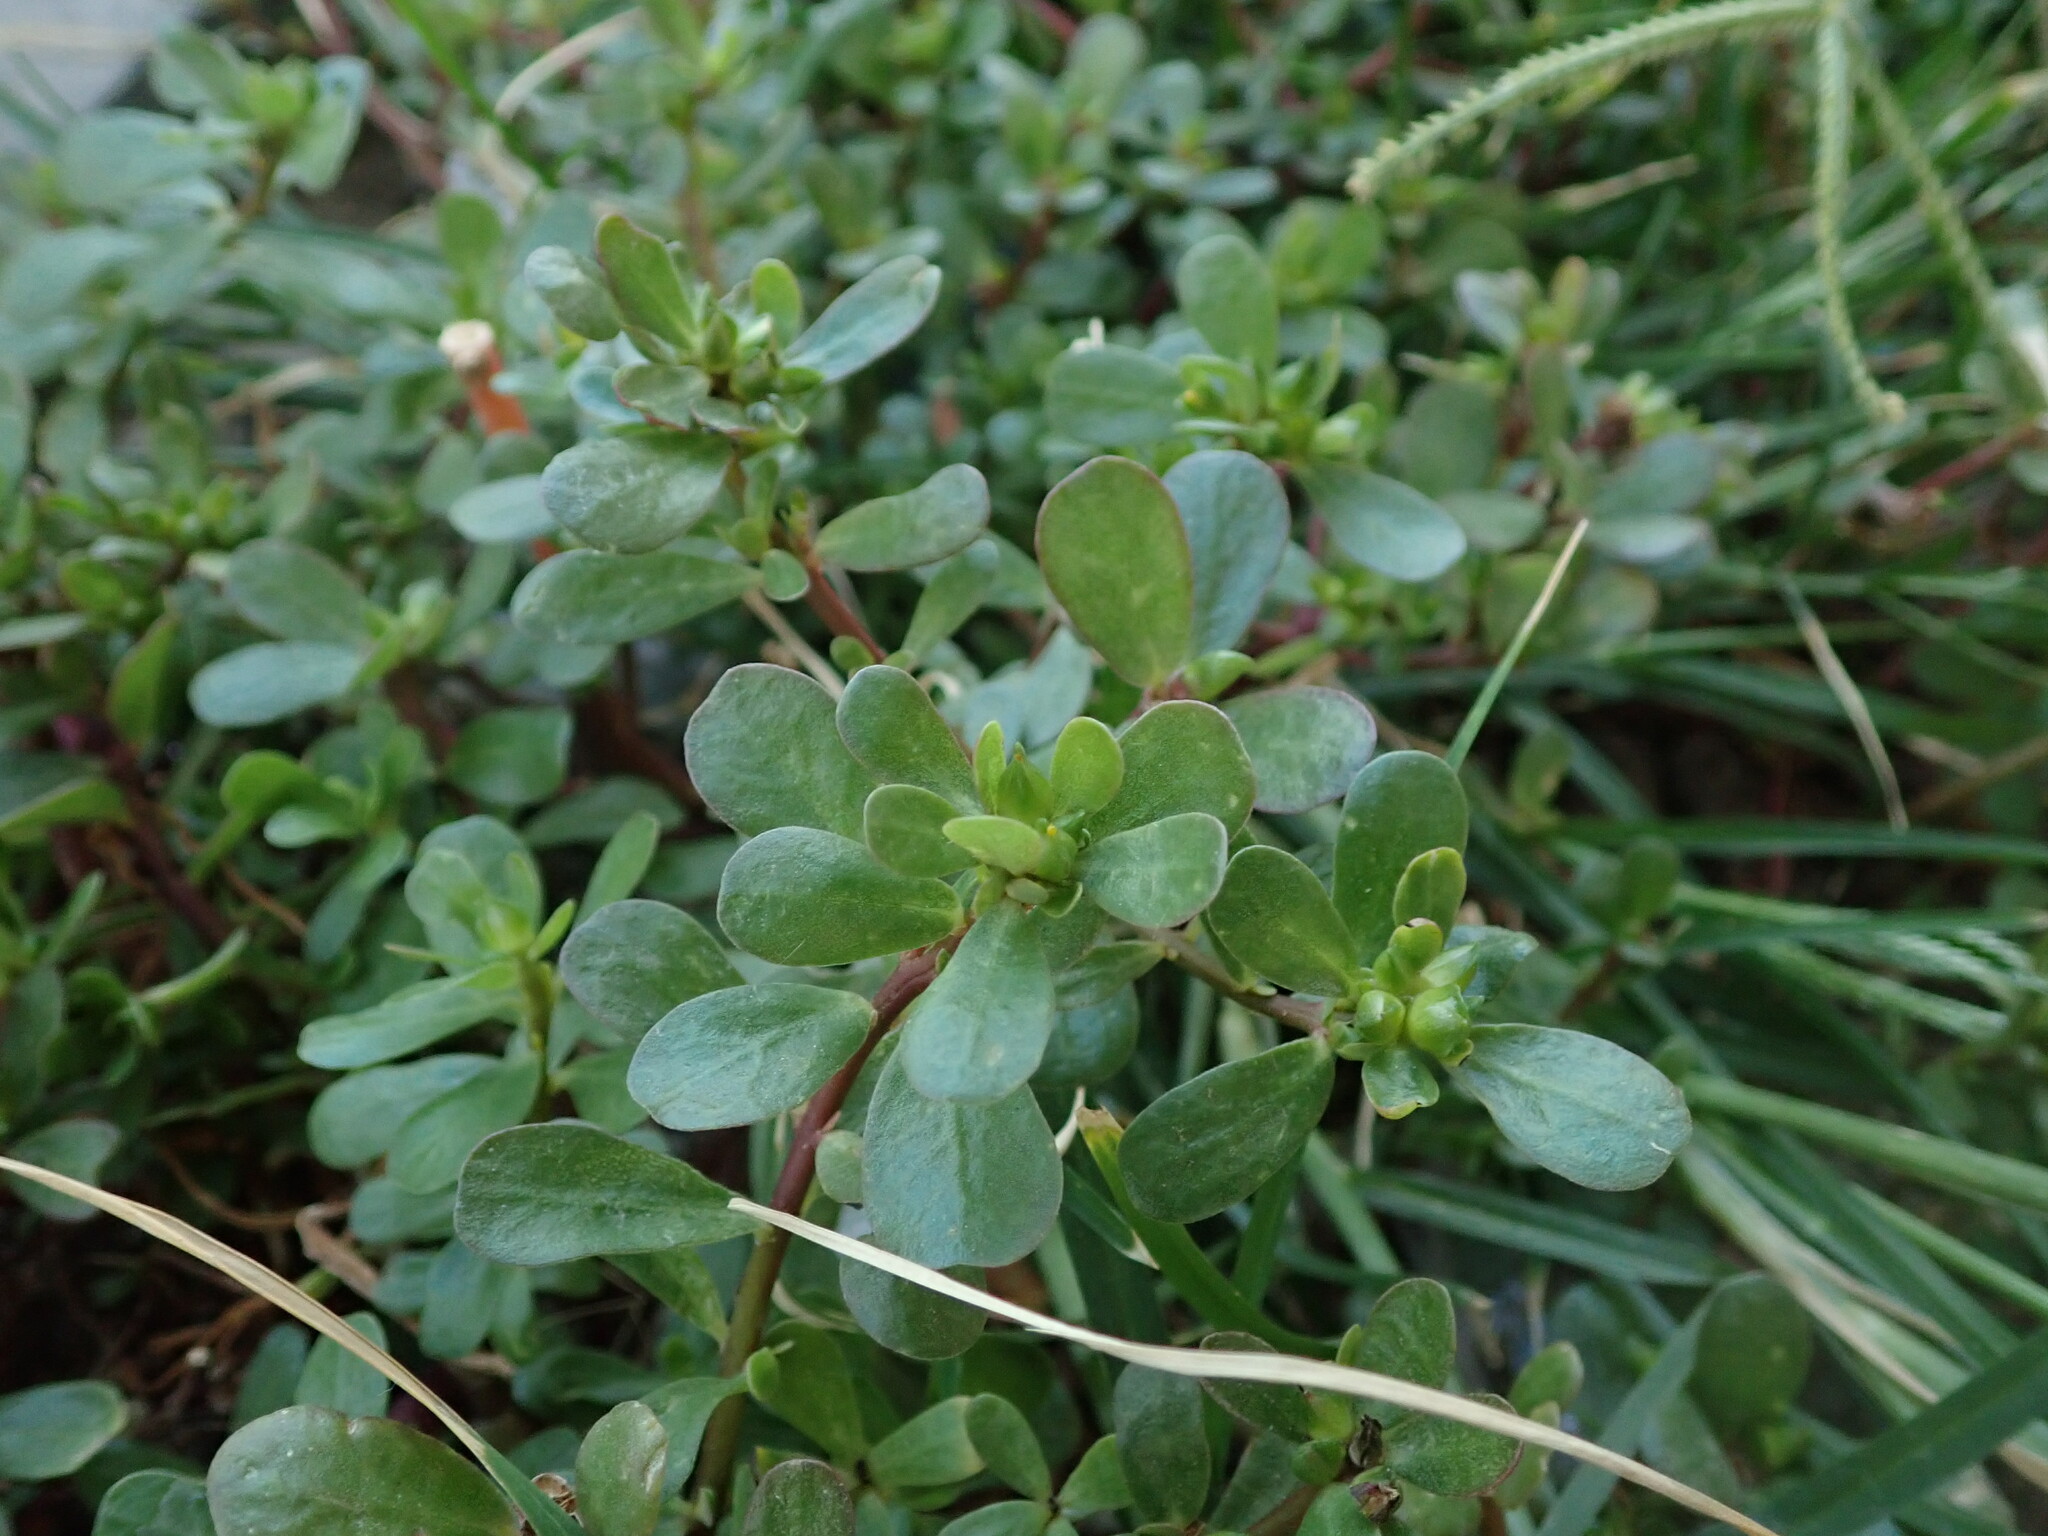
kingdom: Plantae
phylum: Tracheophyta
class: Magnoliopsida
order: Caryophyllales
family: Portulacaceae
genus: Portulaca
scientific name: Portulaca oleracea
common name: Common purslane
